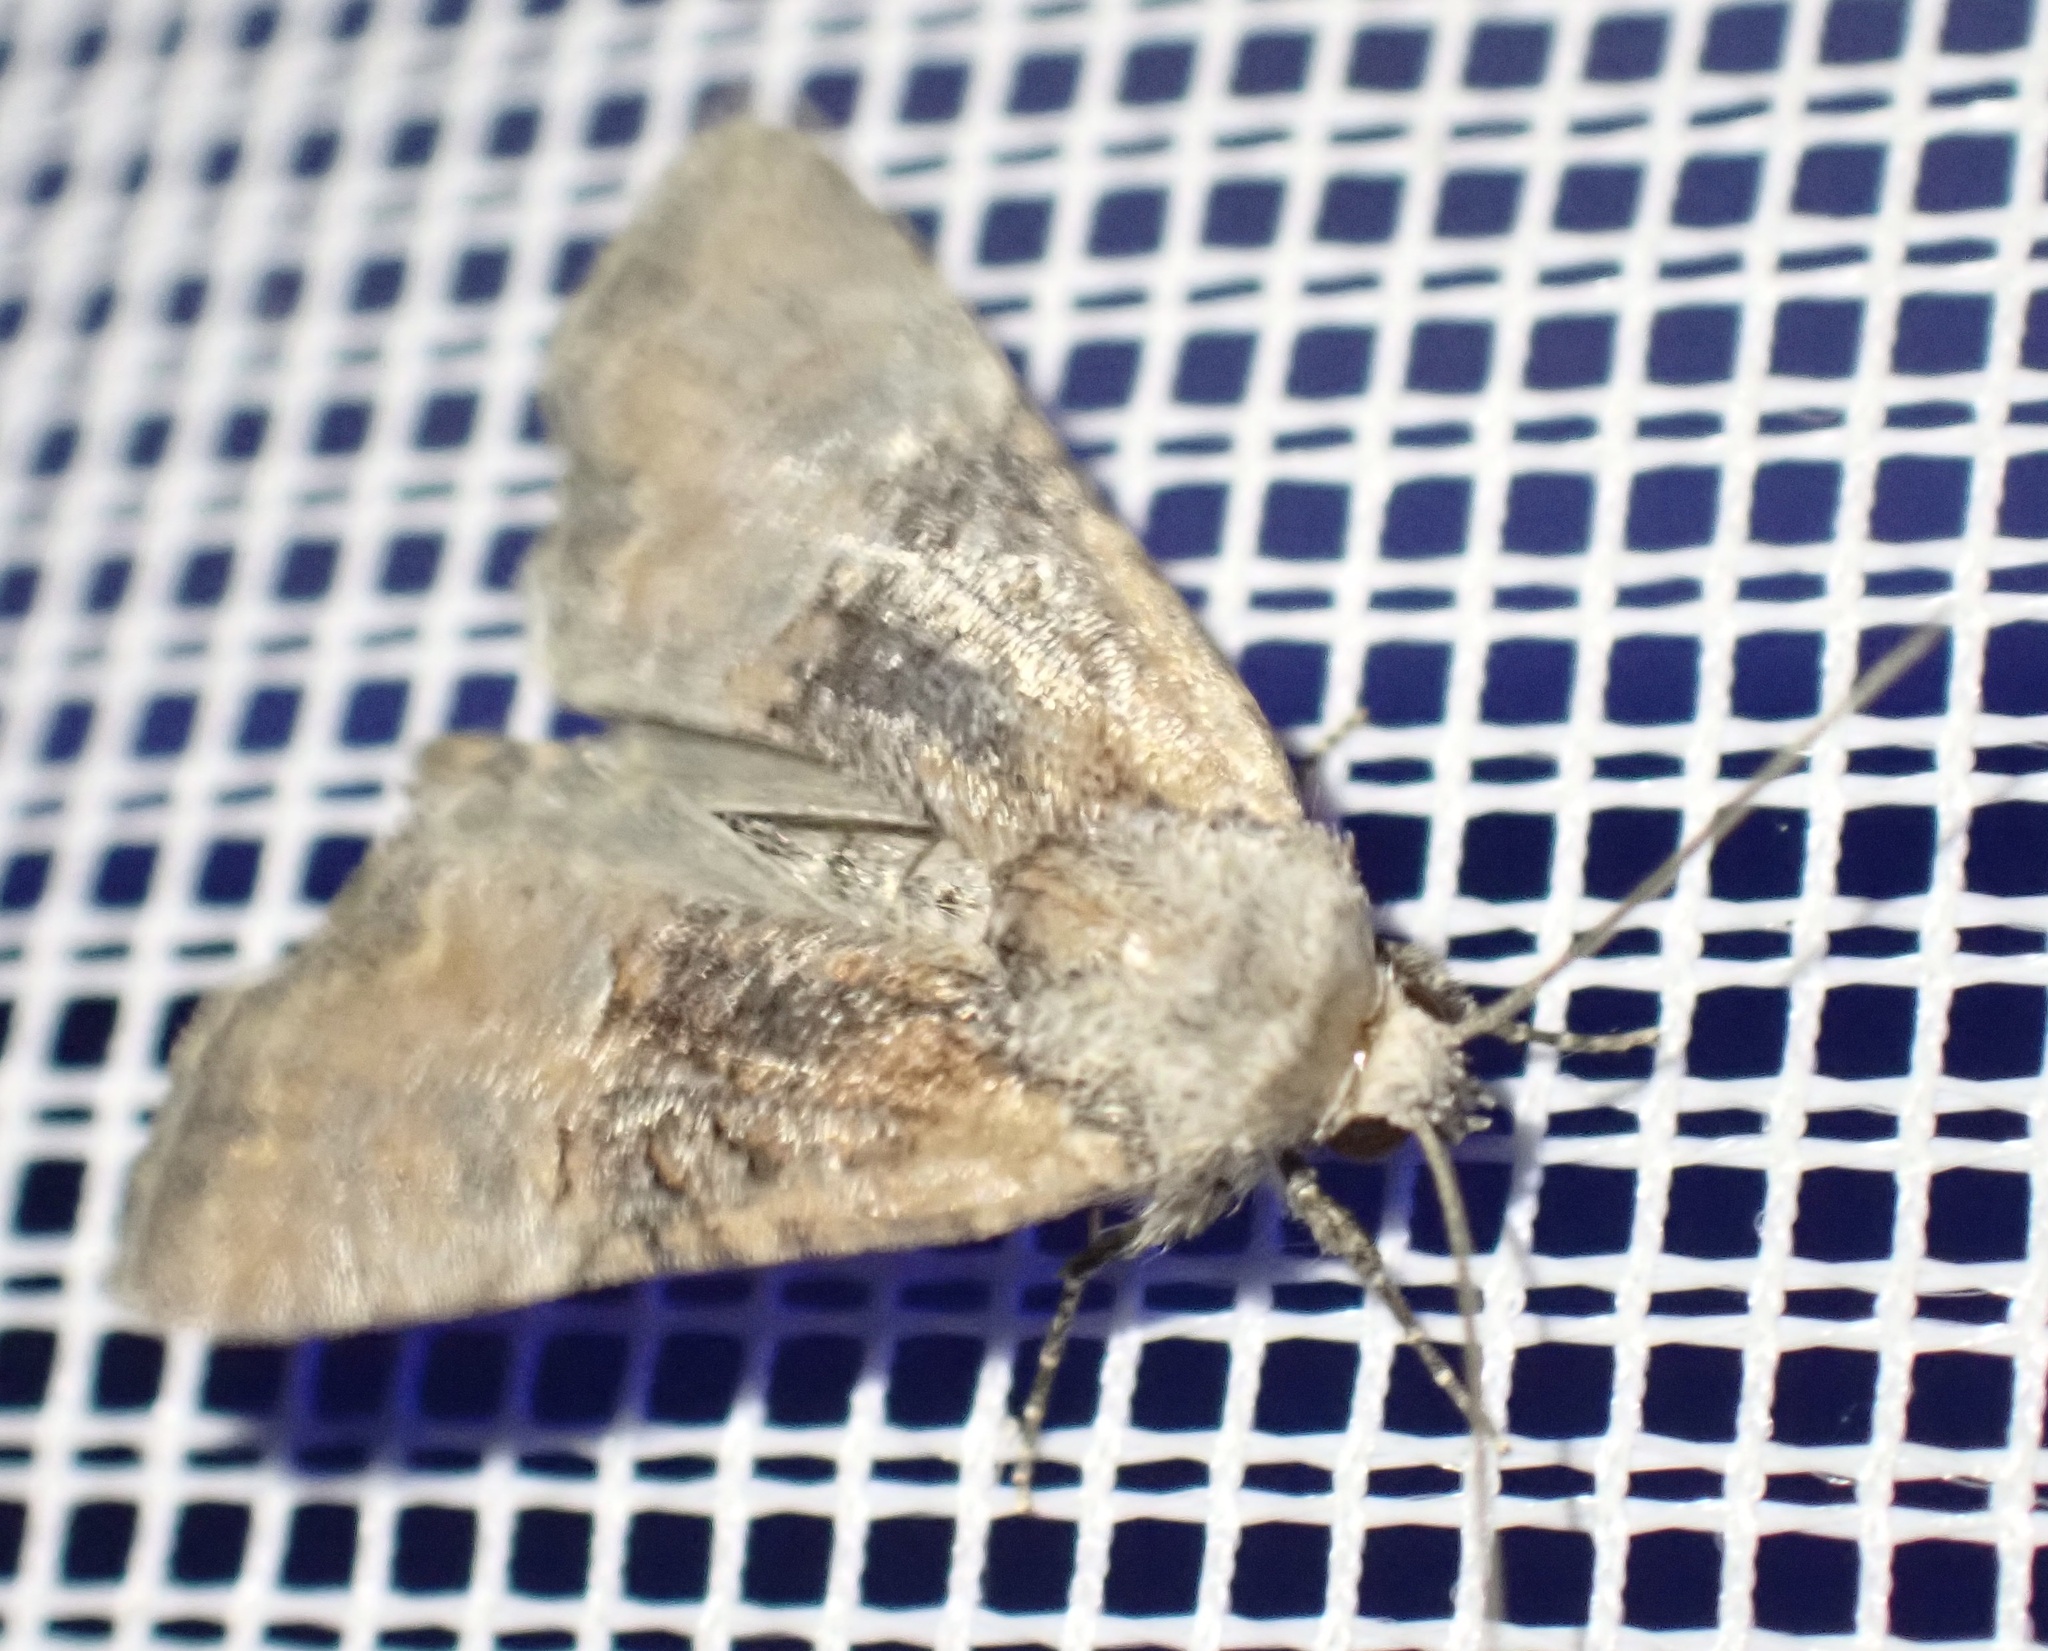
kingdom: Animalia
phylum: Arthropoda
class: Insecta
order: Lepidoptera
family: Noctuidae
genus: Mesoligia
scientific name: Mesoligia furuncula
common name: Cloaked minor
